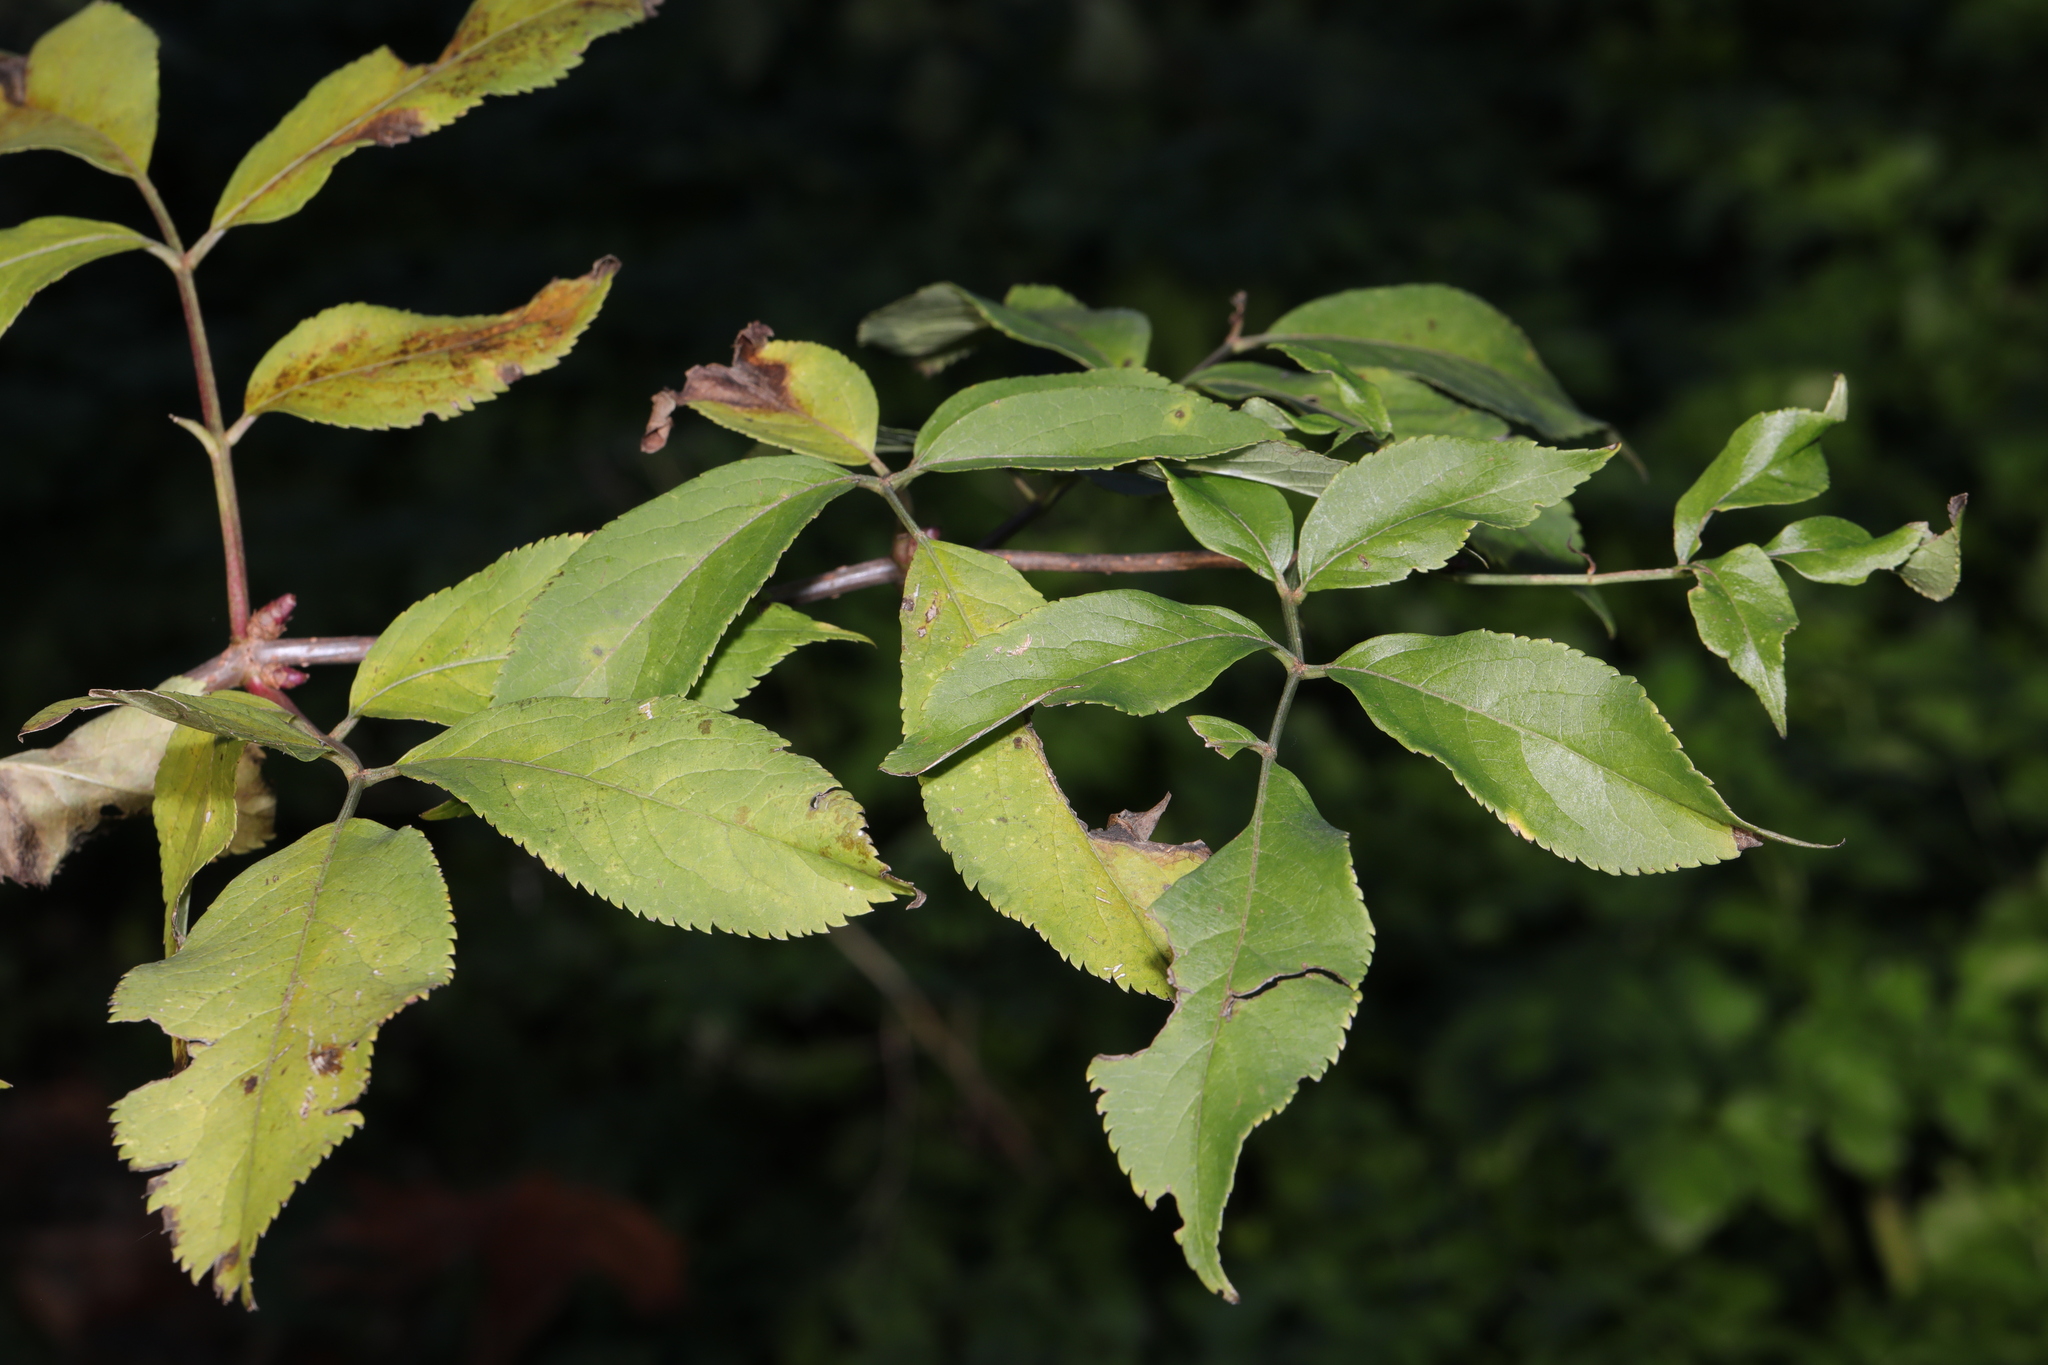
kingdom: Plantae
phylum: Tracheophyta
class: Magnoliopsida
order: Dipsacales
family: Viburnaceae
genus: Sambucus
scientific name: Sambucus nigra
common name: Elder
